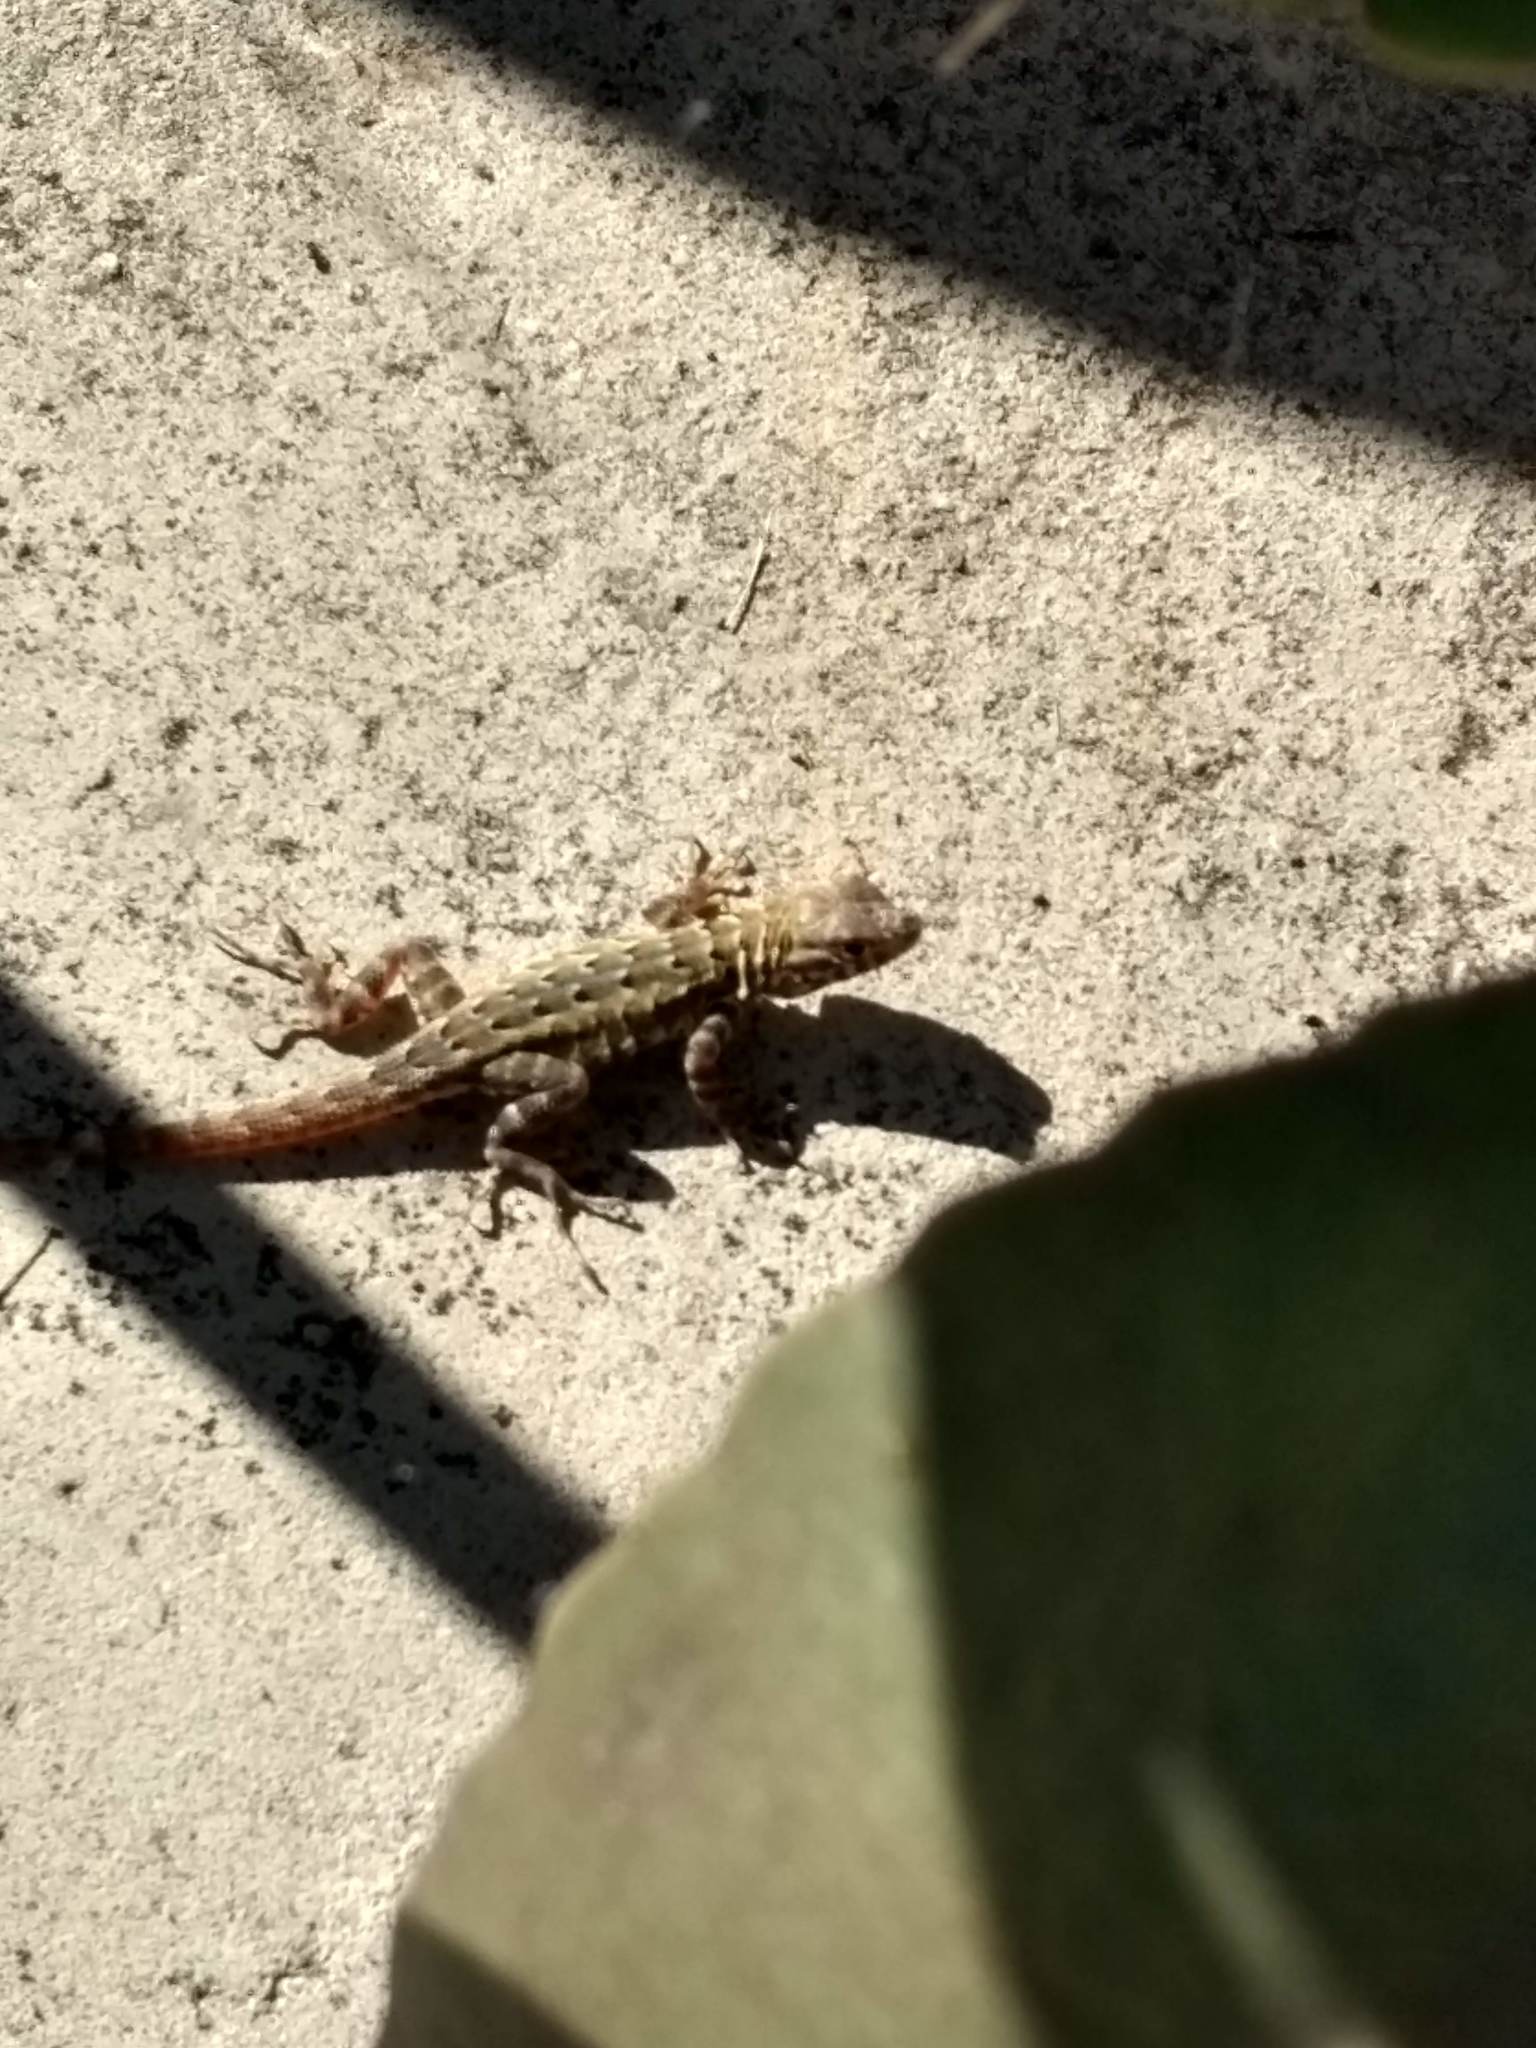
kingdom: Animalia
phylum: Chordata
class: Squamata
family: Phrynosomatidae
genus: Uta
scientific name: Uta stansburiana
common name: Side-blotched lizard
